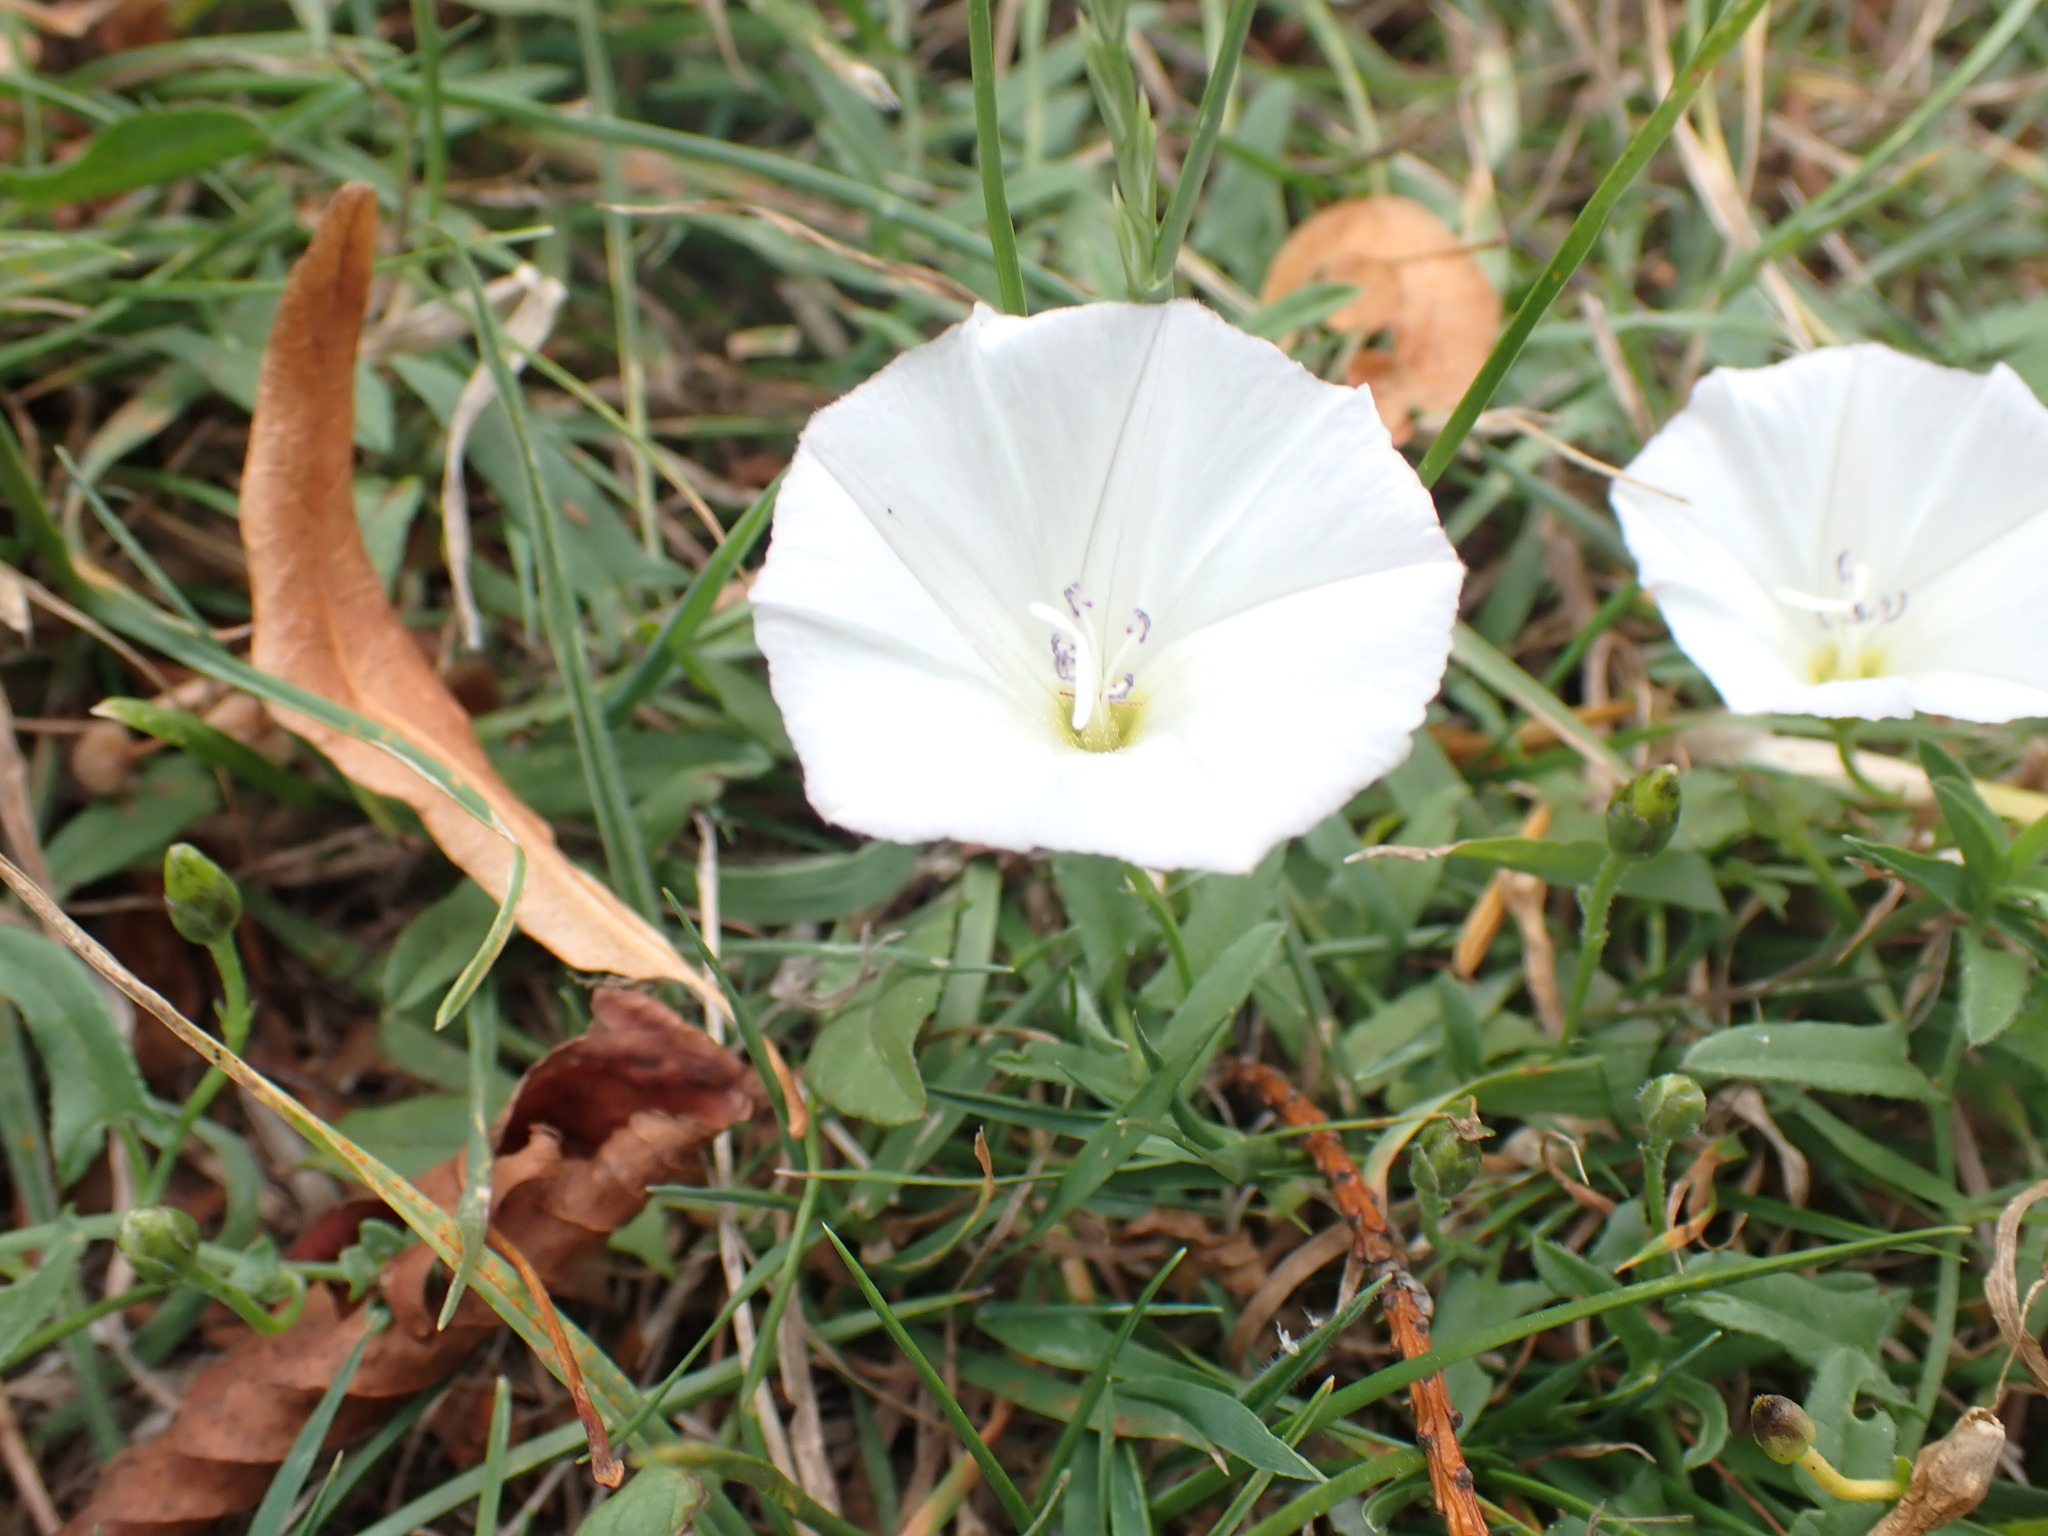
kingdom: Plantae
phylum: Tracheophyta
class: Magnoliopsida
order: Solanales
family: Convolvulaceae
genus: Convolvulus
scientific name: Convolvulus arvensis
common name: Field bindweed
